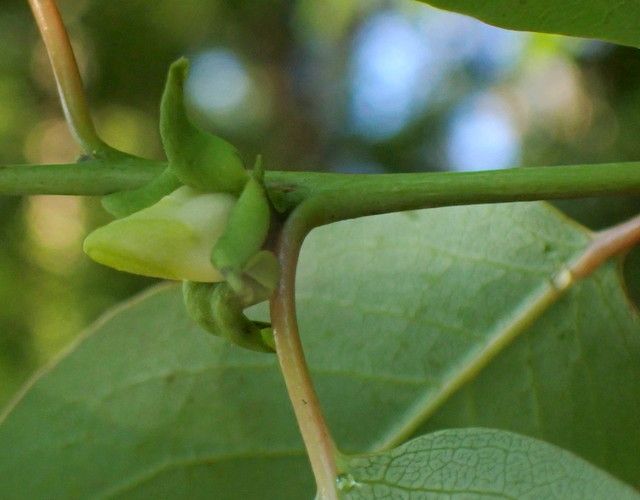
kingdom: Plantae
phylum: Tracheophyta
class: Magnoliopsida
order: Ericales
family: Ebenaceae
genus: Diospyros
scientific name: Diospyros virginiana
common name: Persimmon
